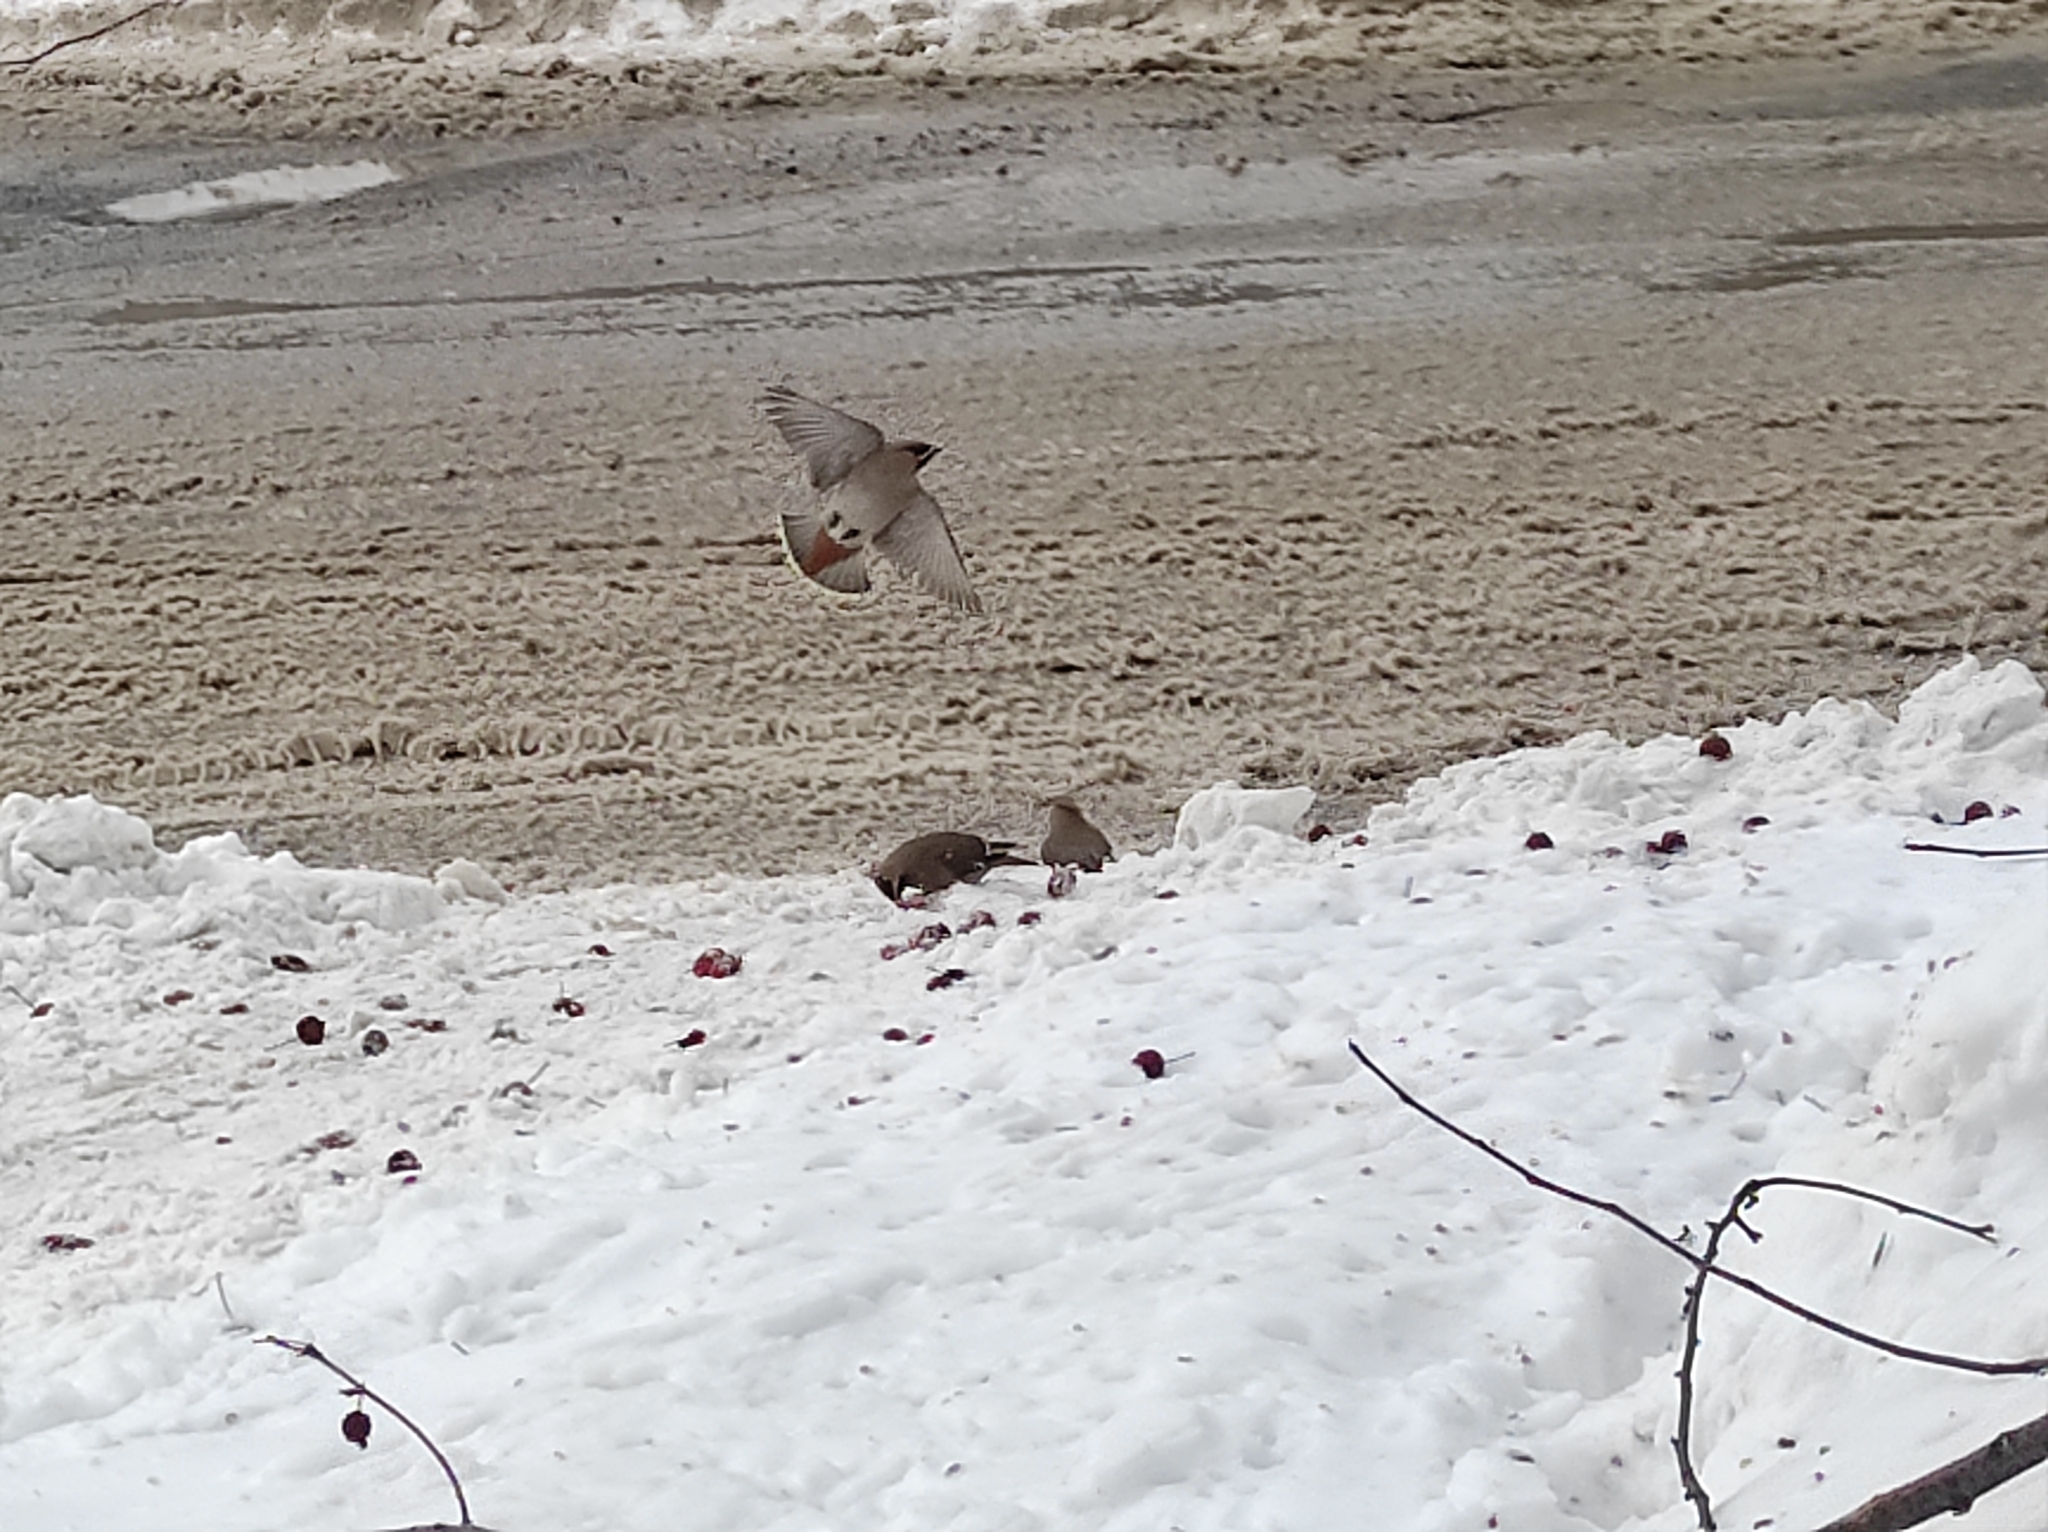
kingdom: Animalia
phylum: Chordata
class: Aves
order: Passeriformes
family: Bombycillidae
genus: Bombycilla
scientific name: Bombycilla garrulus
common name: Bohemian waxwing
